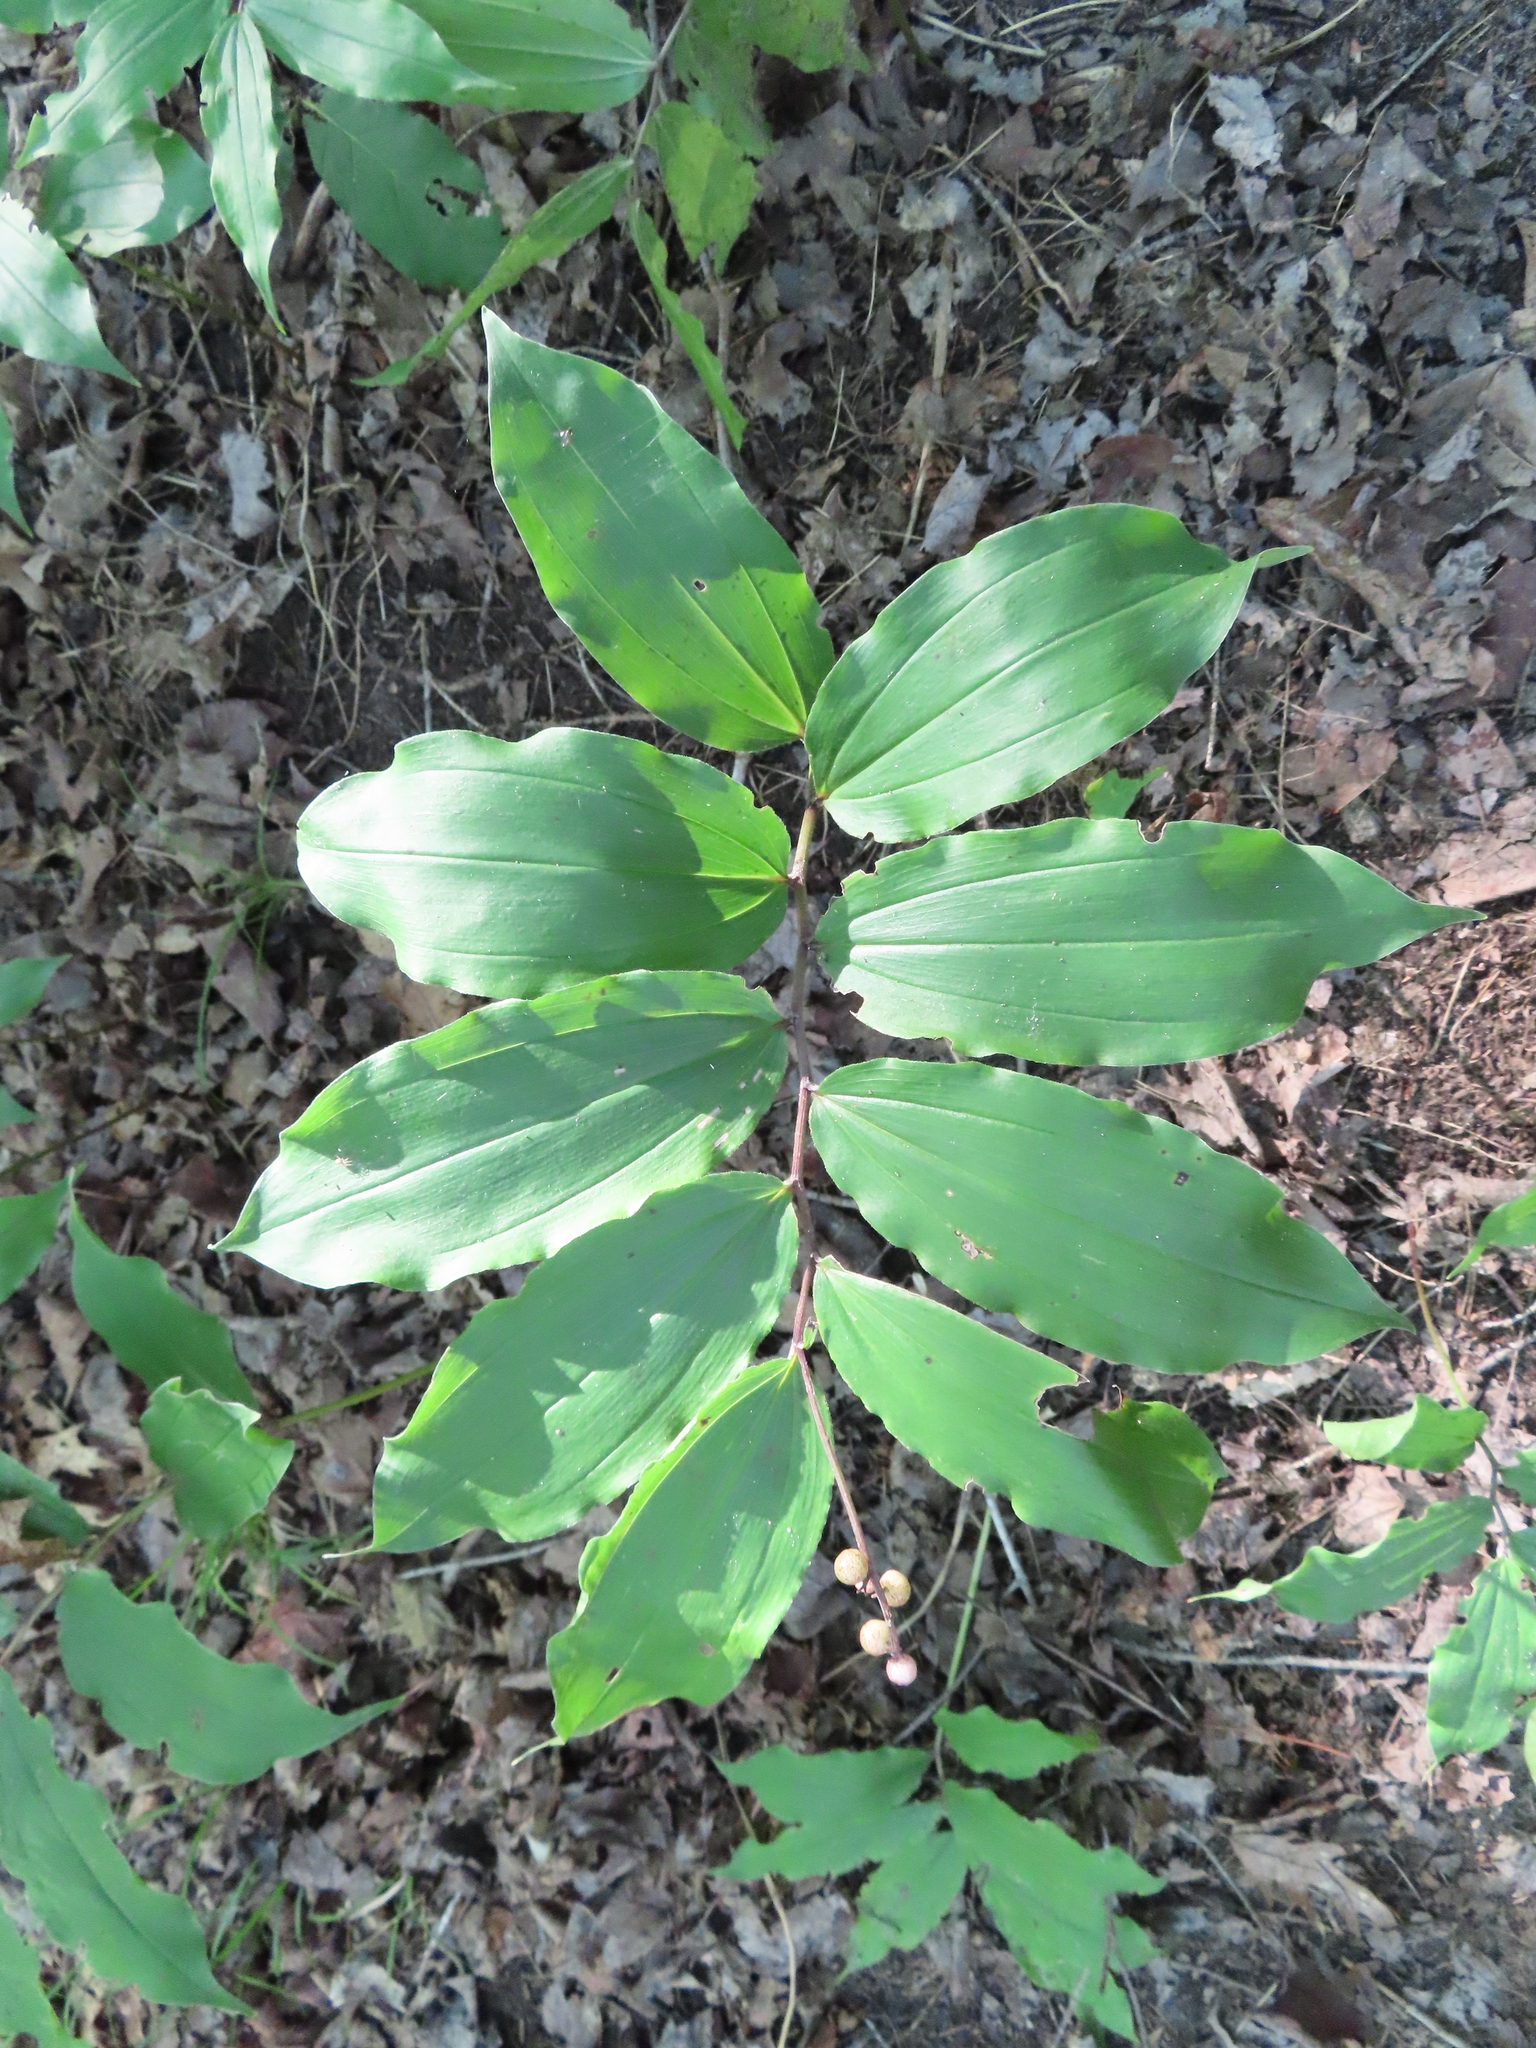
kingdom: Plantae
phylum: Tracheophyta
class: Liliopsida
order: Asparagales
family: Asparagaceae
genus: Maianthemum
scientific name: Maianthemum racemosum
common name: False spikenard
